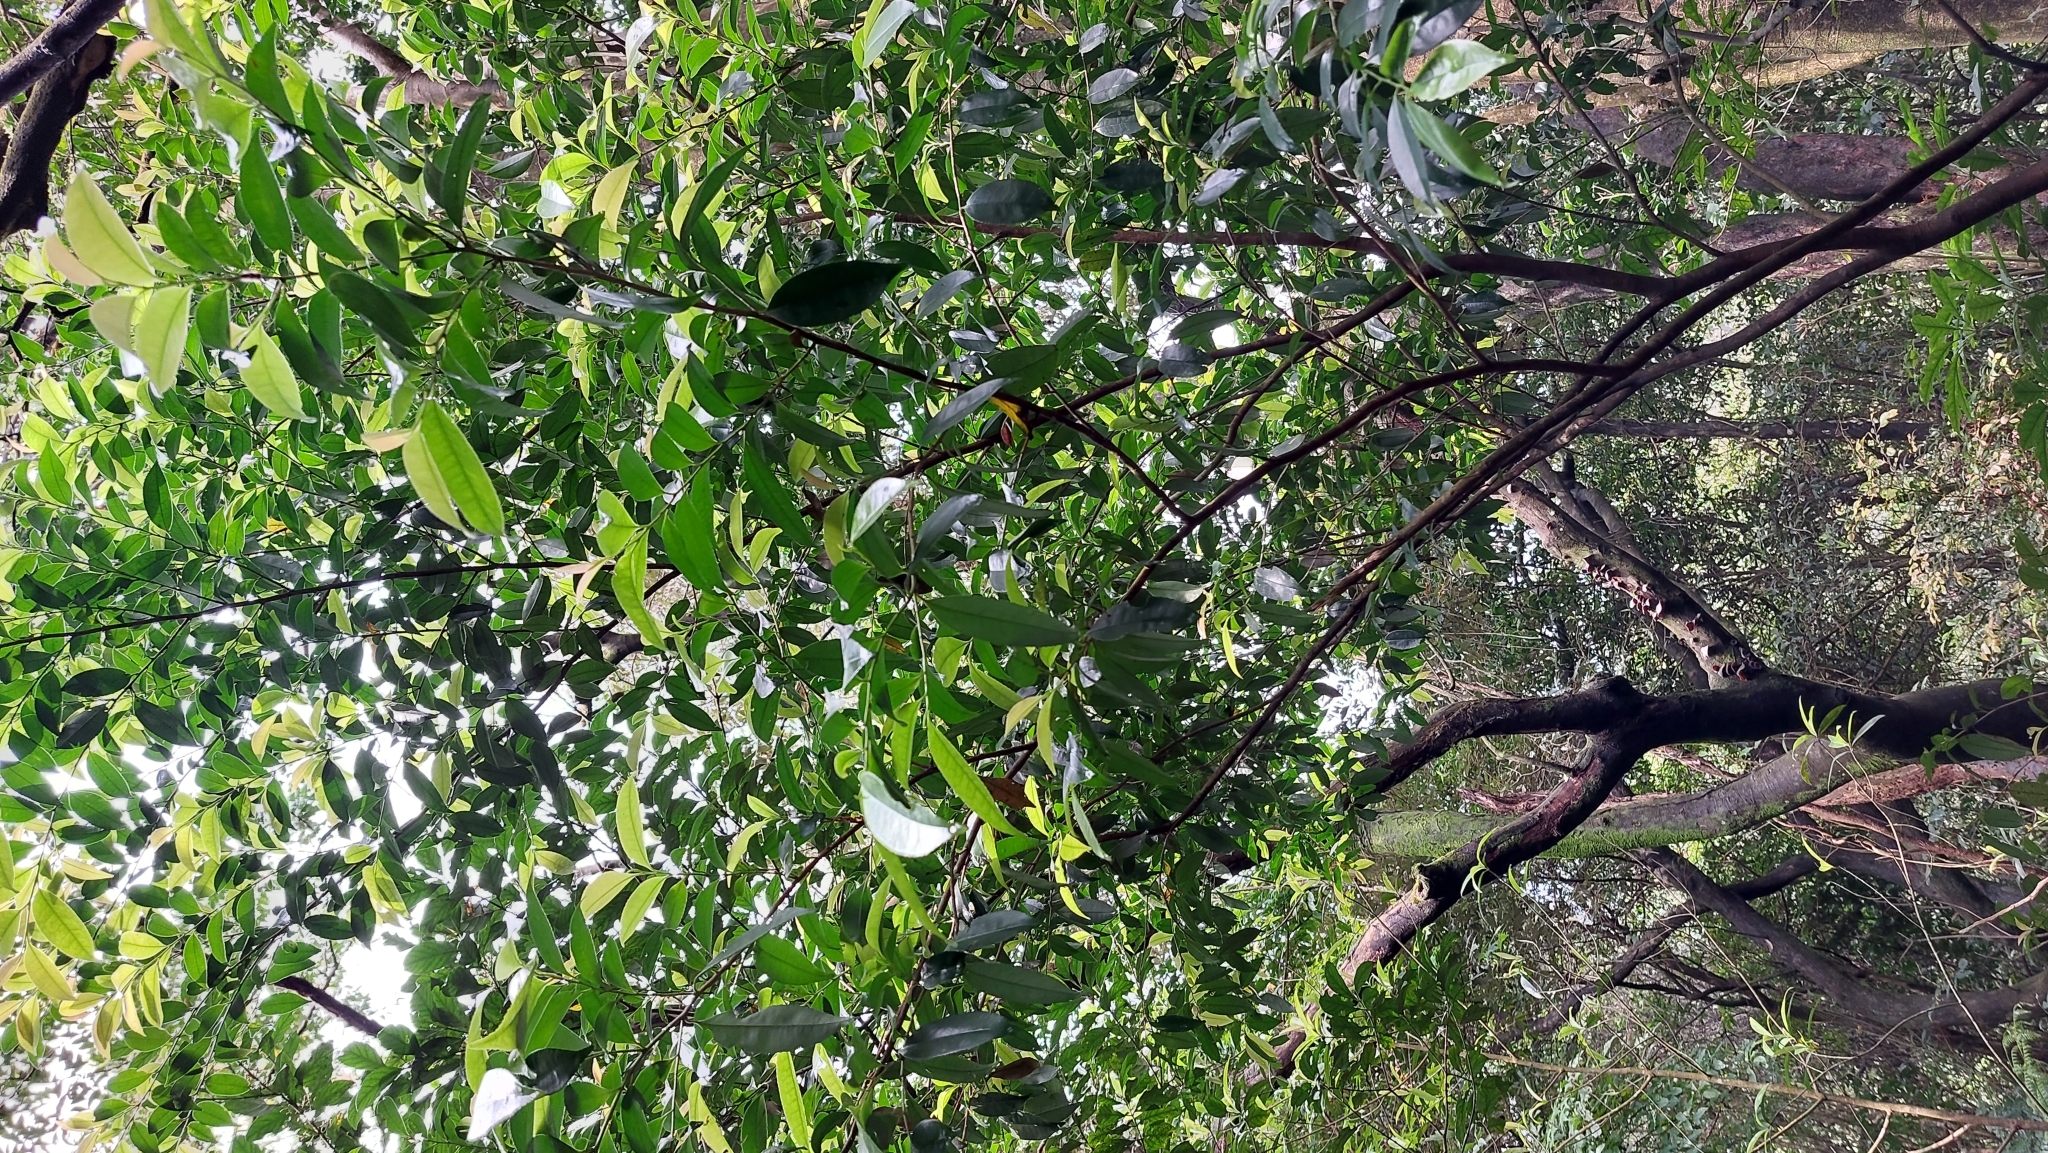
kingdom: Plantae
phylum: Tracheophyta
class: Magnoliopsida
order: Ericales
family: Pentaphylacaceae
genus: Eurya
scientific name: Eurya nitida
